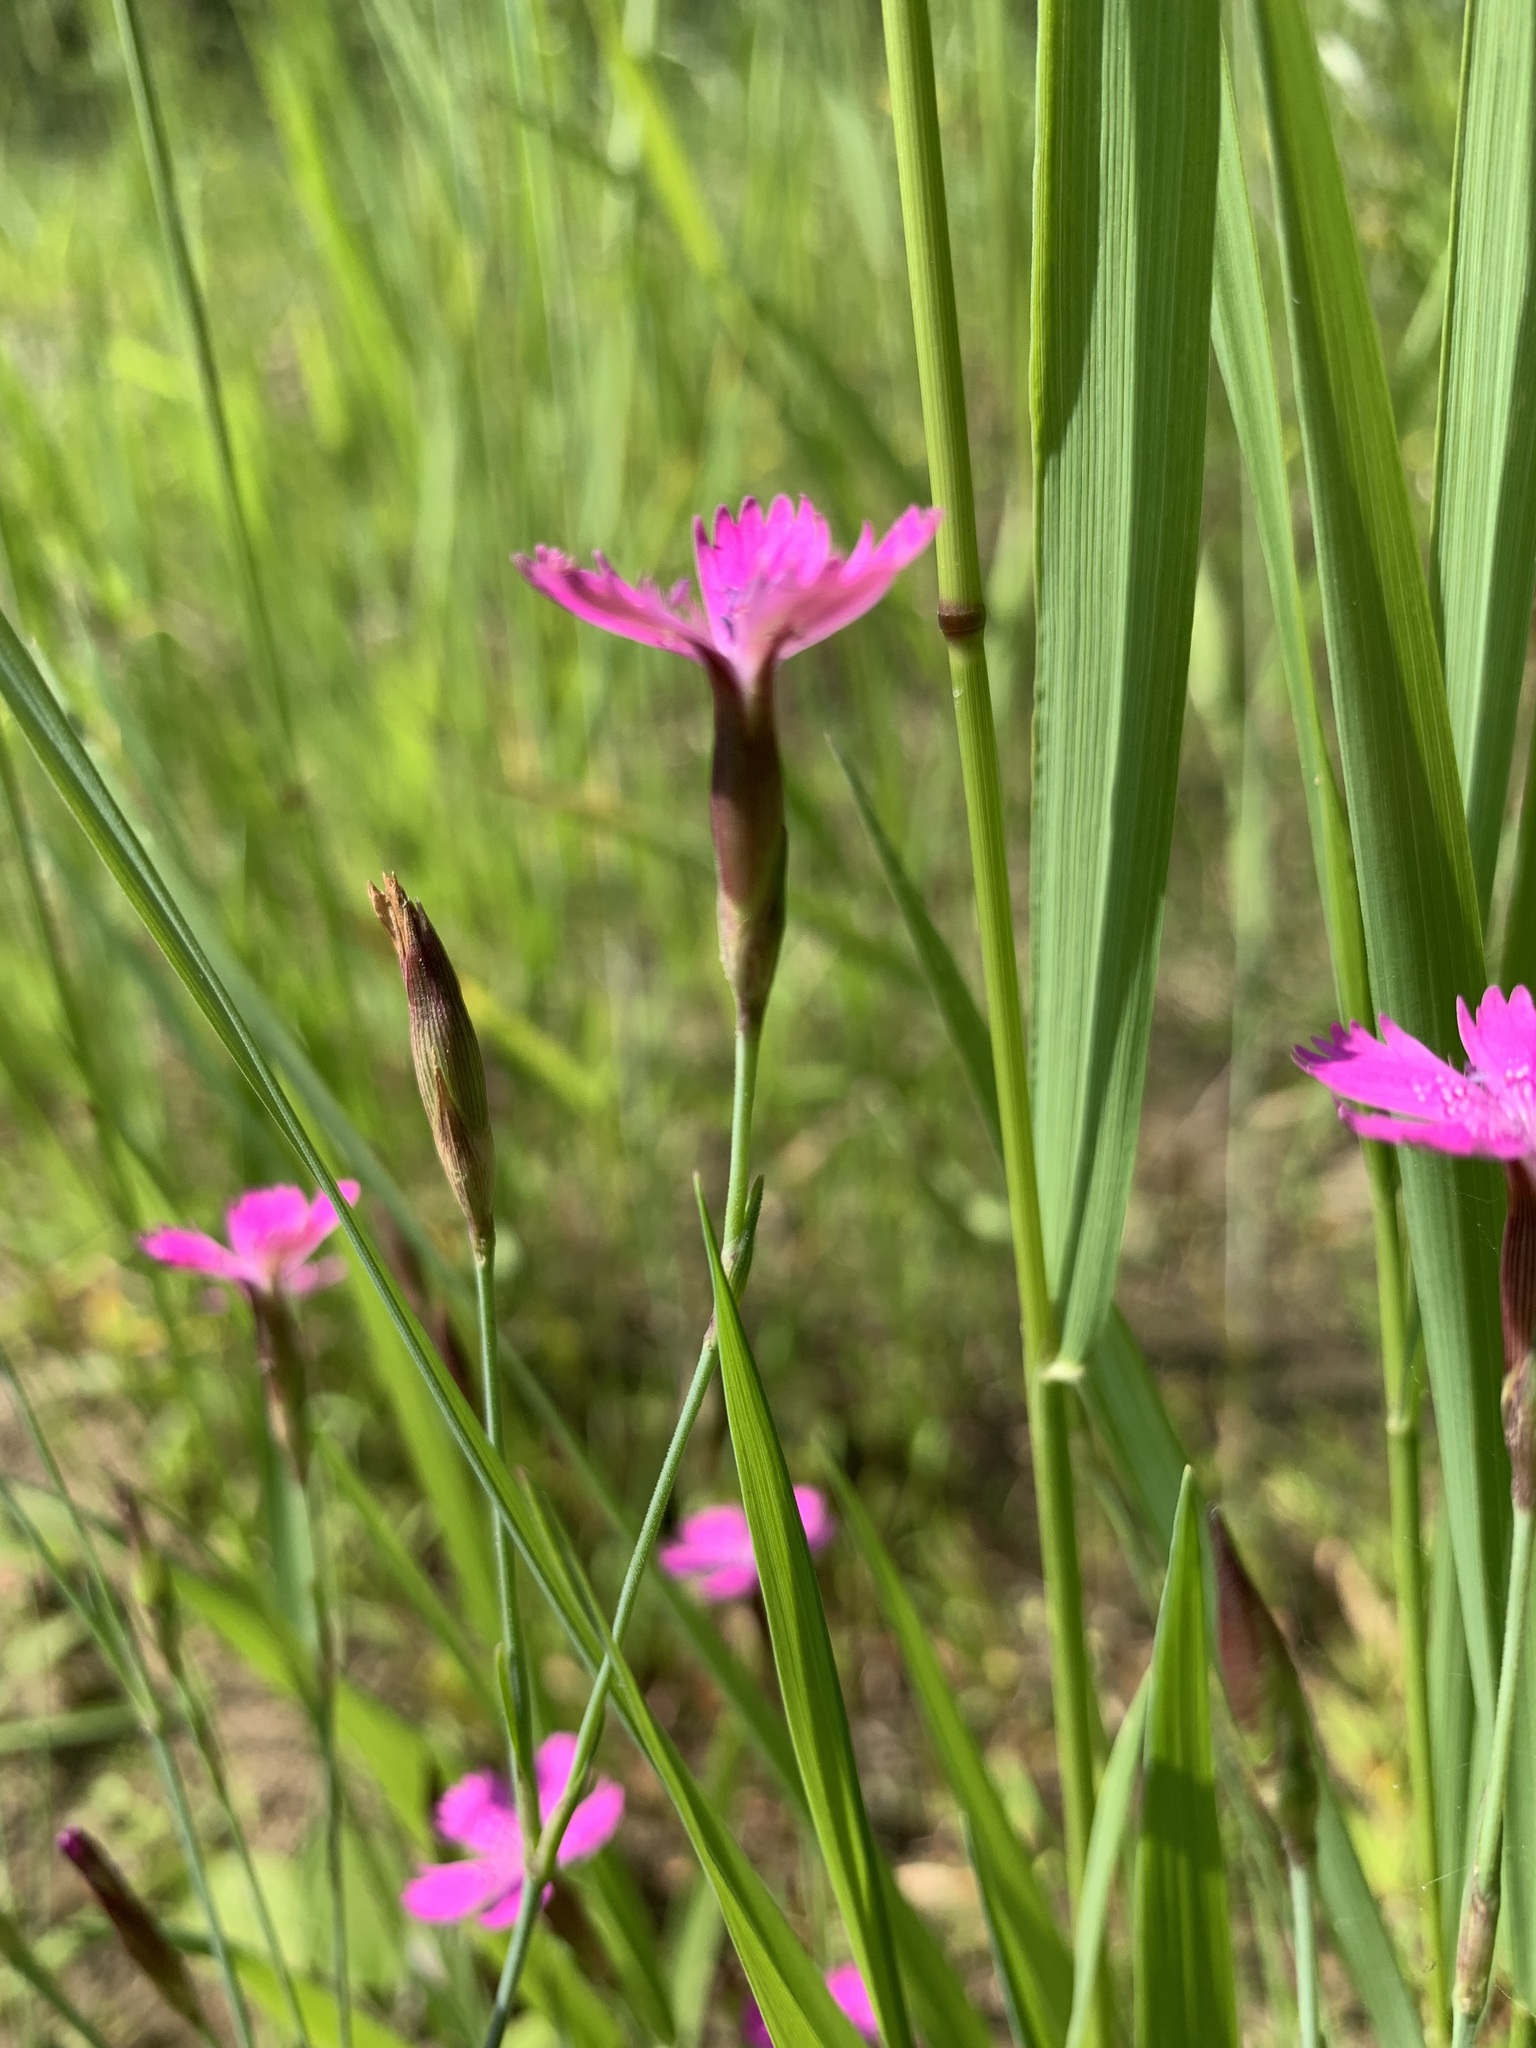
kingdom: Plantae
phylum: Tracheophyta
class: Magnoliopsida
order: Caryophyllales
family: Caryophyllaceae
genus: Dianthus
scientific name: Dianthus deltoides
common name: Maiden pink
